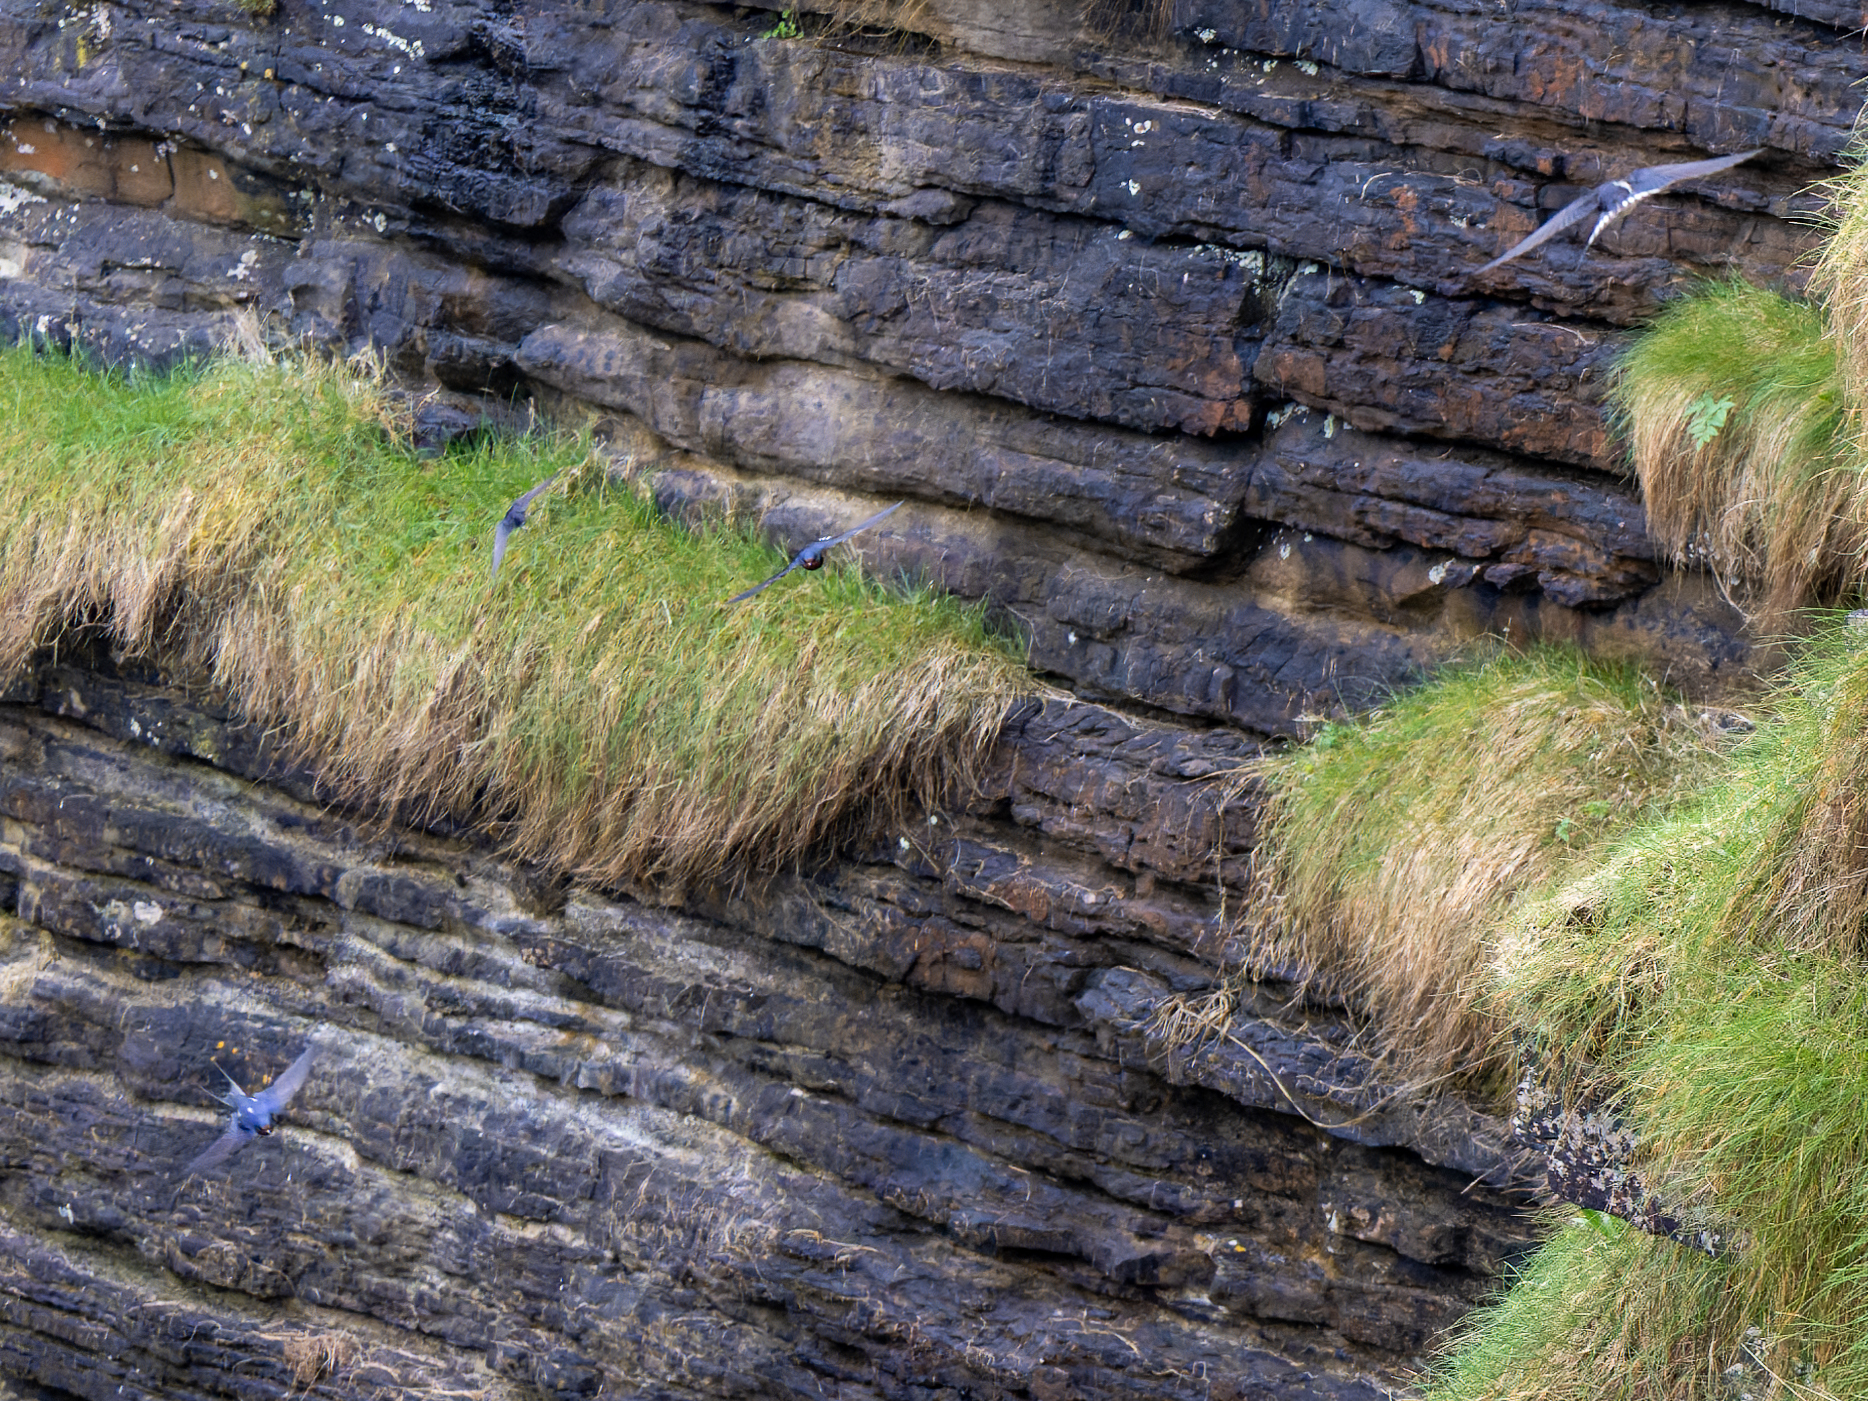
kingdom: Animalia
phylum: Chordata
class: Aves
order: Passeriformes
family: Hirundinidae
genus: Hirundo
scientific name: Hirundo rustica
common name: Barn swallow
